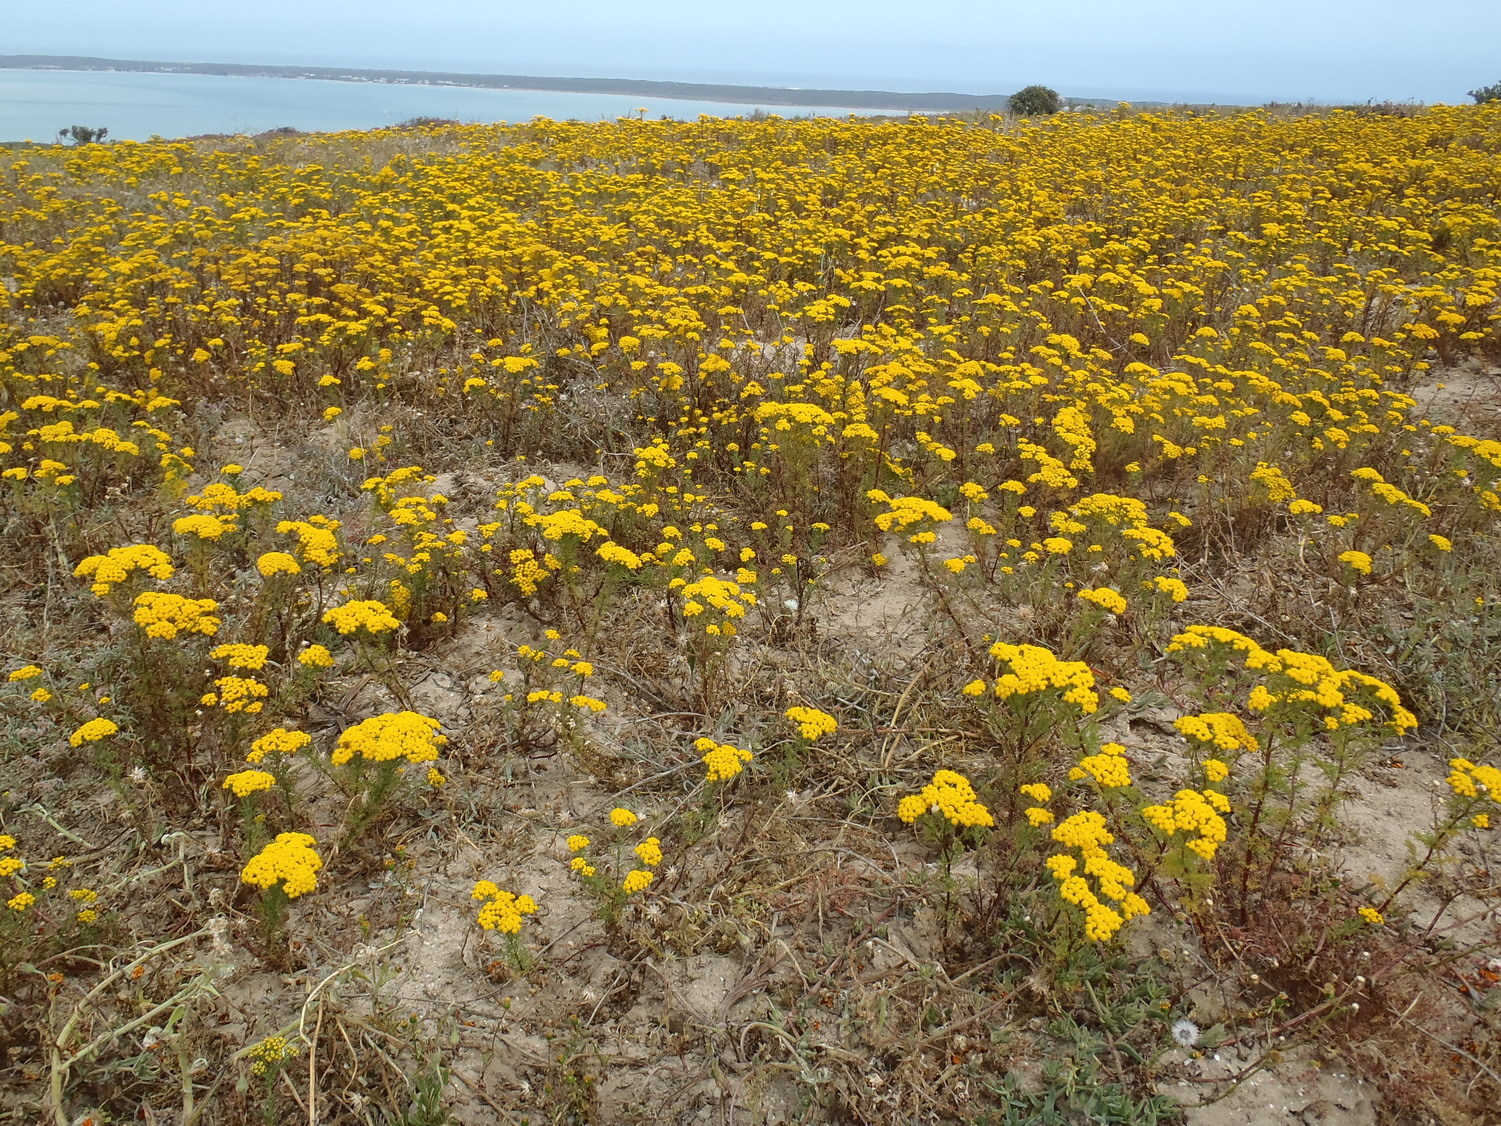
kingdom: Plantae
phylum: Tracheophyta
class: Magnoliopsida
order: Asterales
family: Asteraceae
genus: Oncosiphon
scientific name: Oncosiphon suffruticosus
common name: Shrubby mayweed
